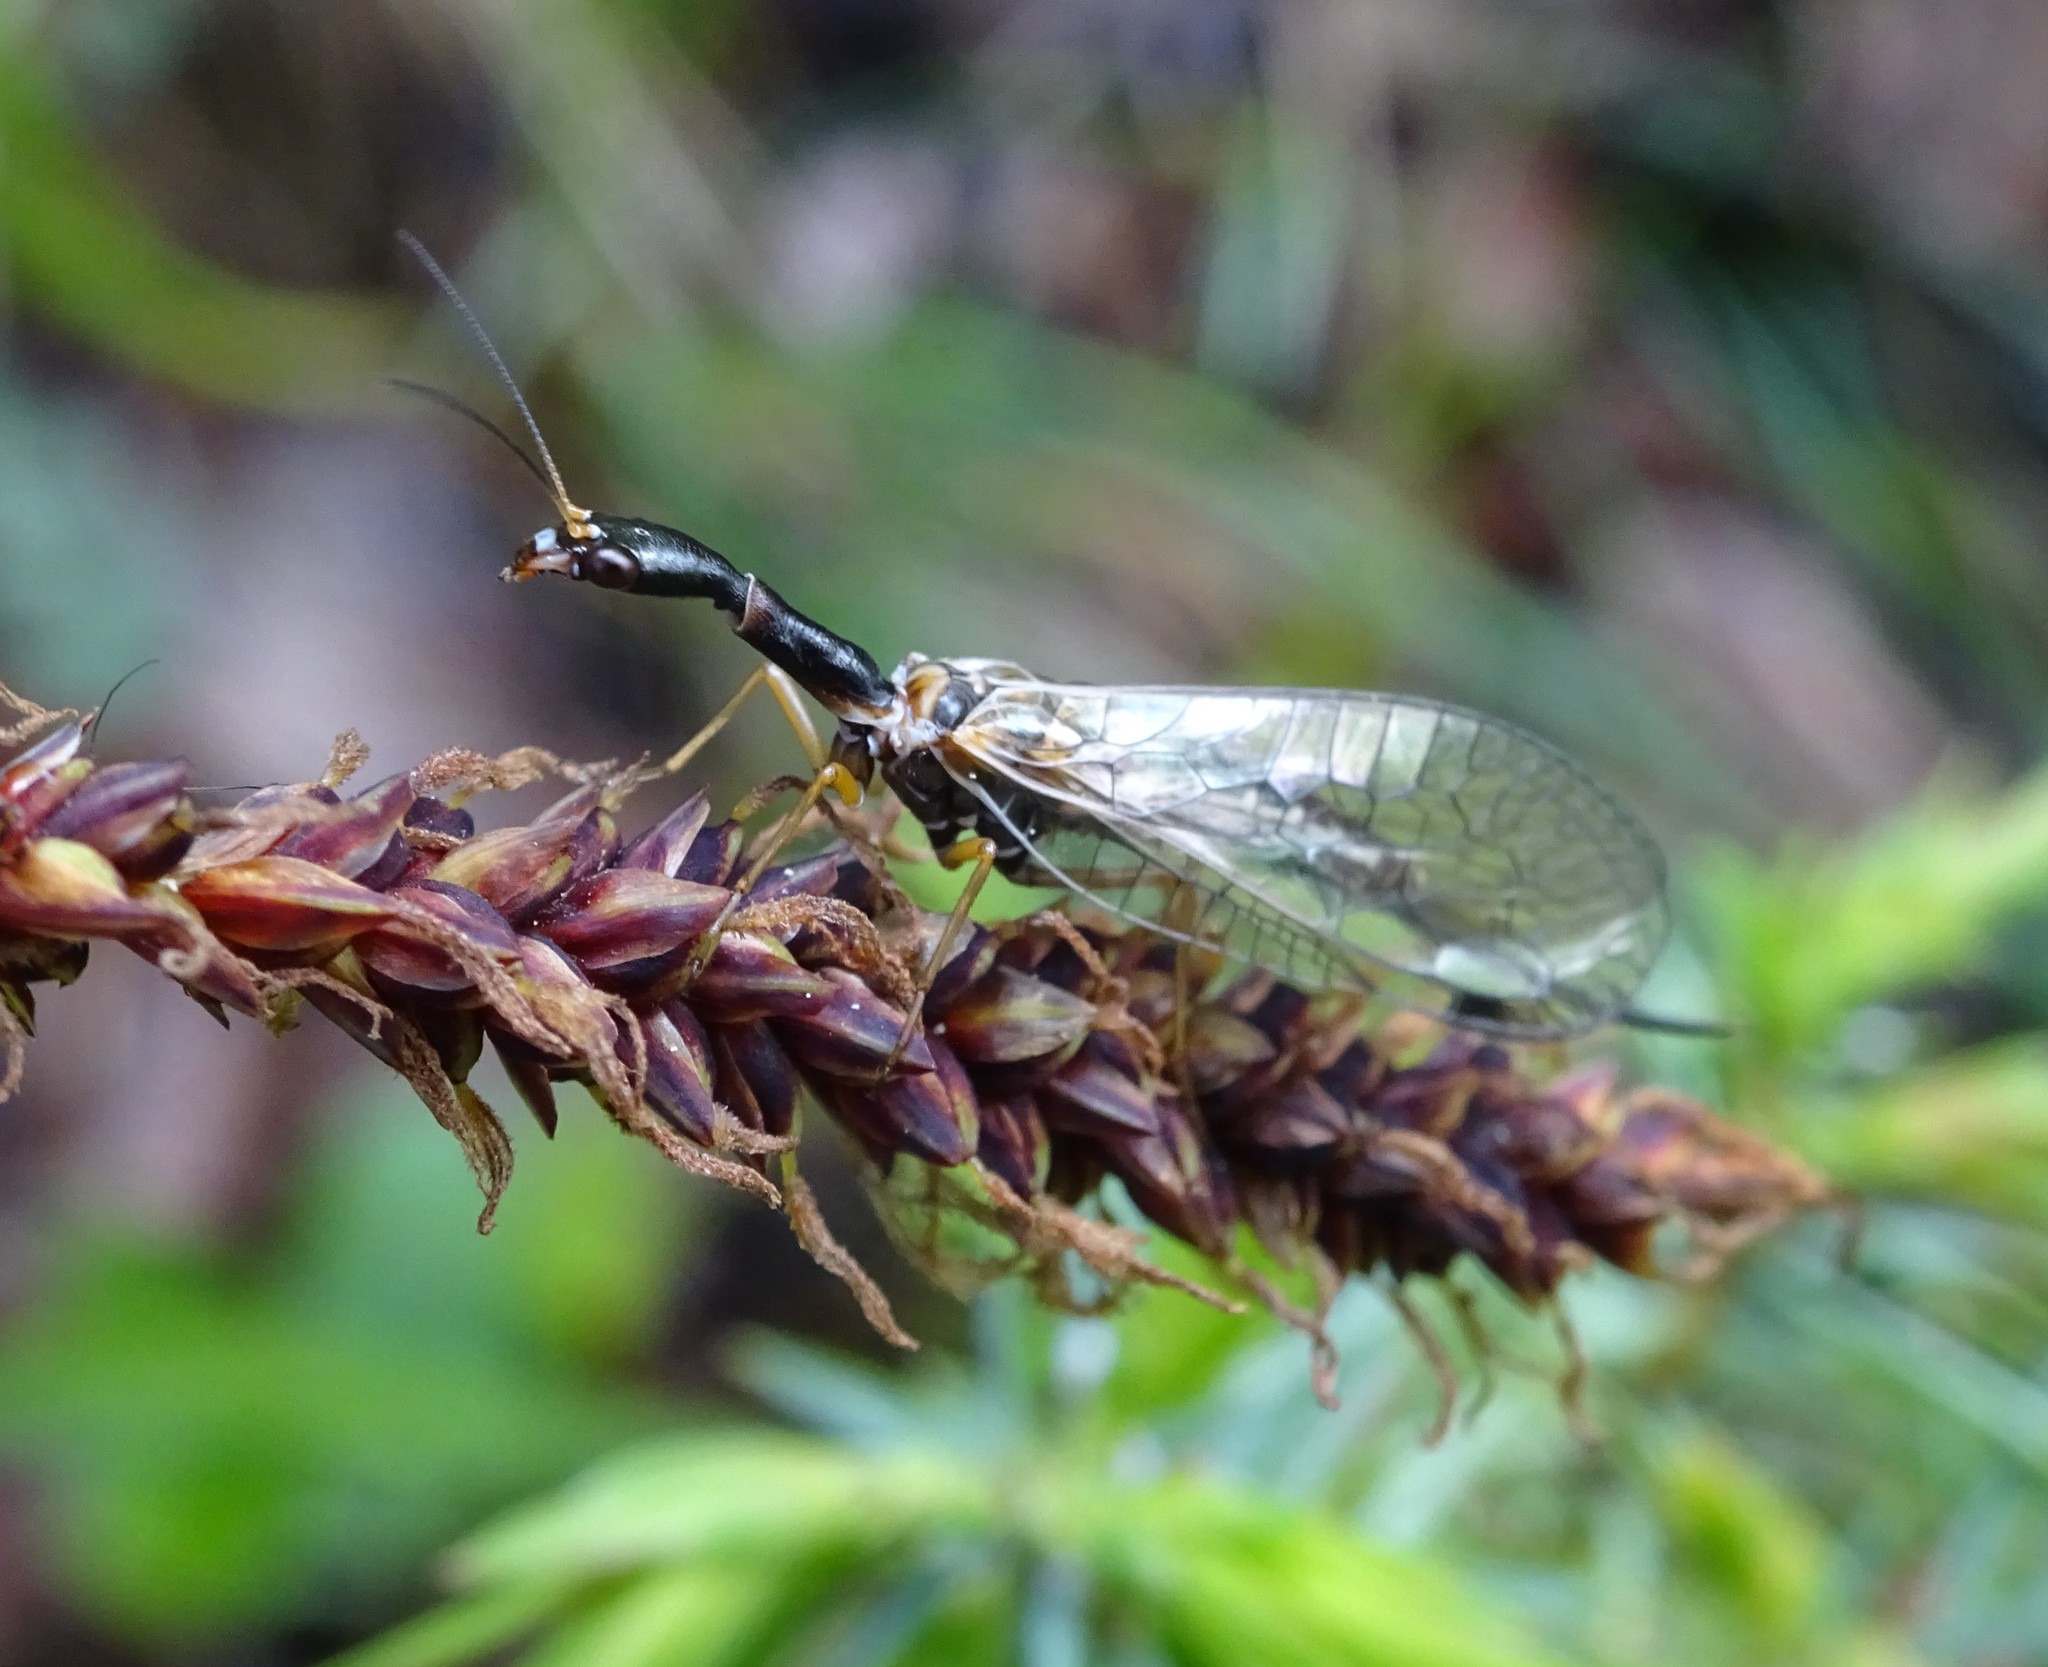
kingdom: Animalia
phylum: Arthropoda
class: Insecta
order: Raphidioptera
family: Raphidiidae
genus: Dichrostigma
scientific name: Dichrostigma flavipes
